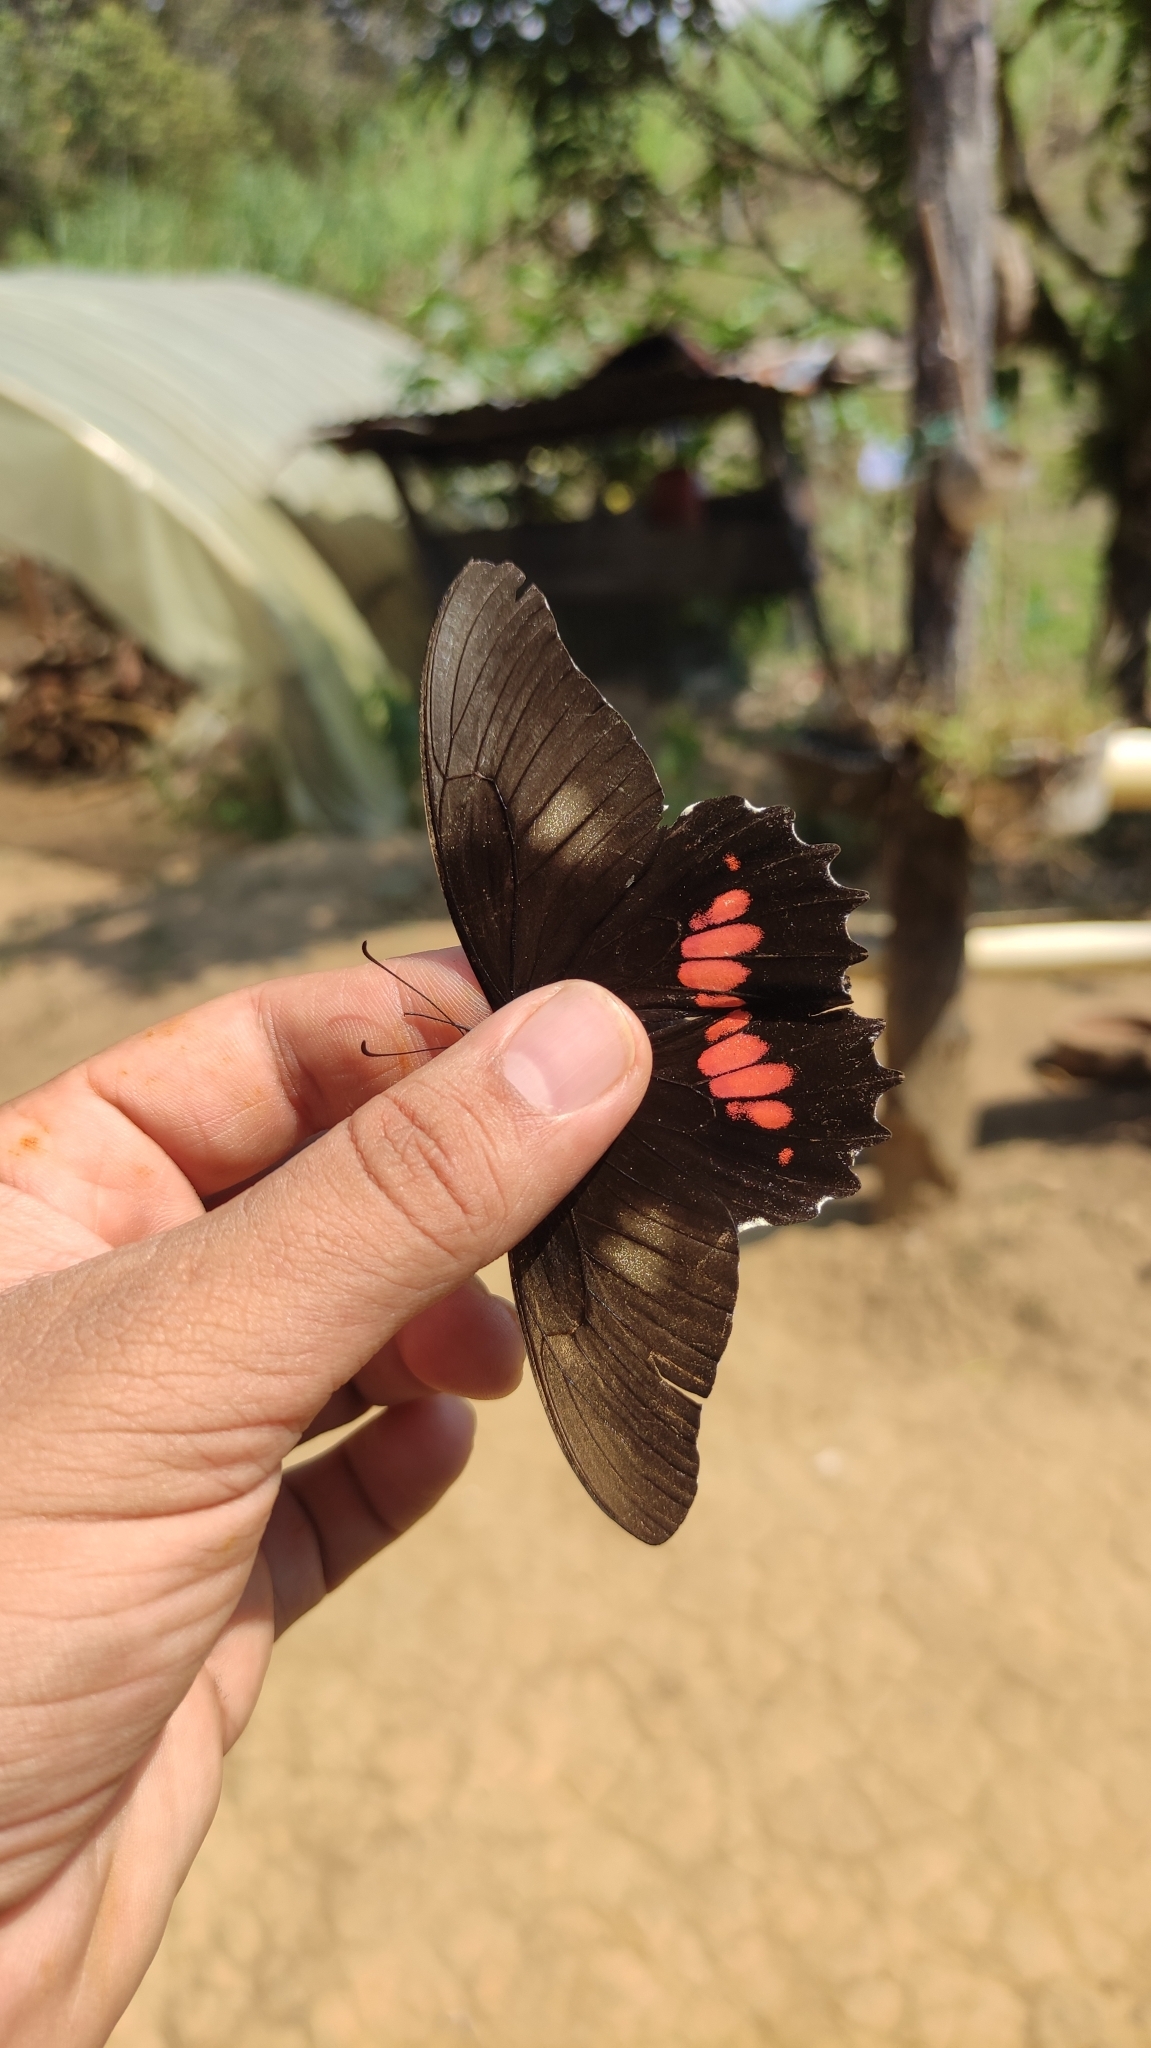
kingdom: Animalia
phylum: Arthropoda
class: Insecta
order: Lepidoptera
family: Papilionidae
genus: Papilio
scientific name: Papilio anchisiades
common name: Idaes swallowtail
